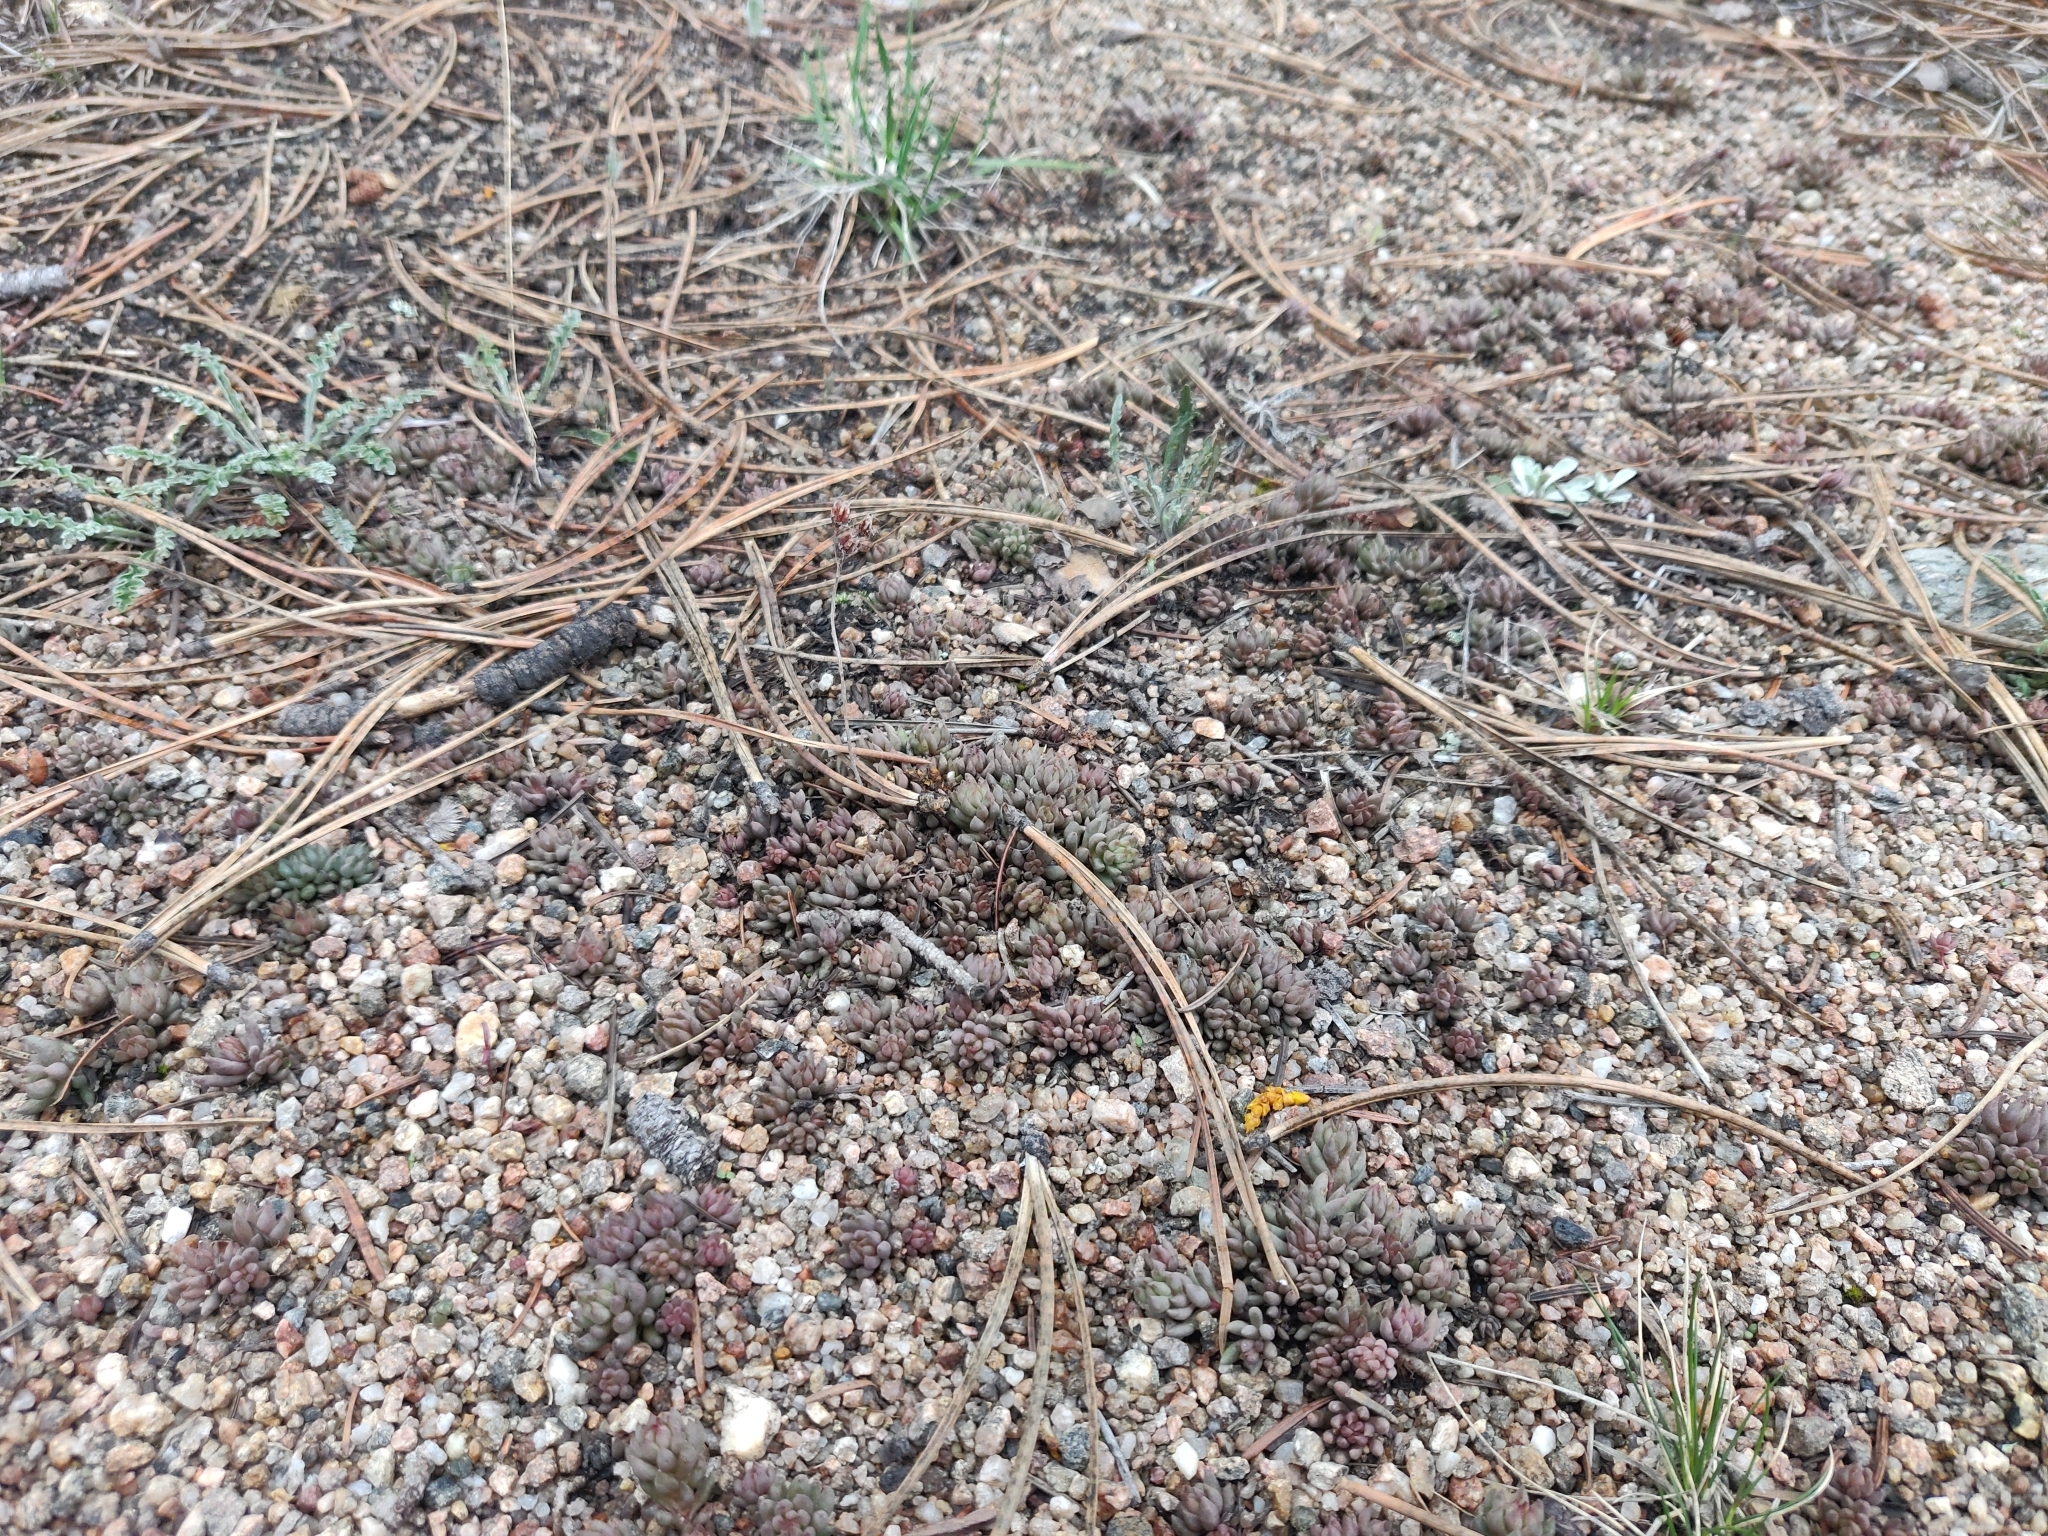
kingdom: Plantae
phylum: Tracheophyta
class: Magnoliopsida
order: Saxifragales
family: Crassulaceae
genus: Sedum
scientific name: Sedum lanceolatum
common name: Common stonecrop
